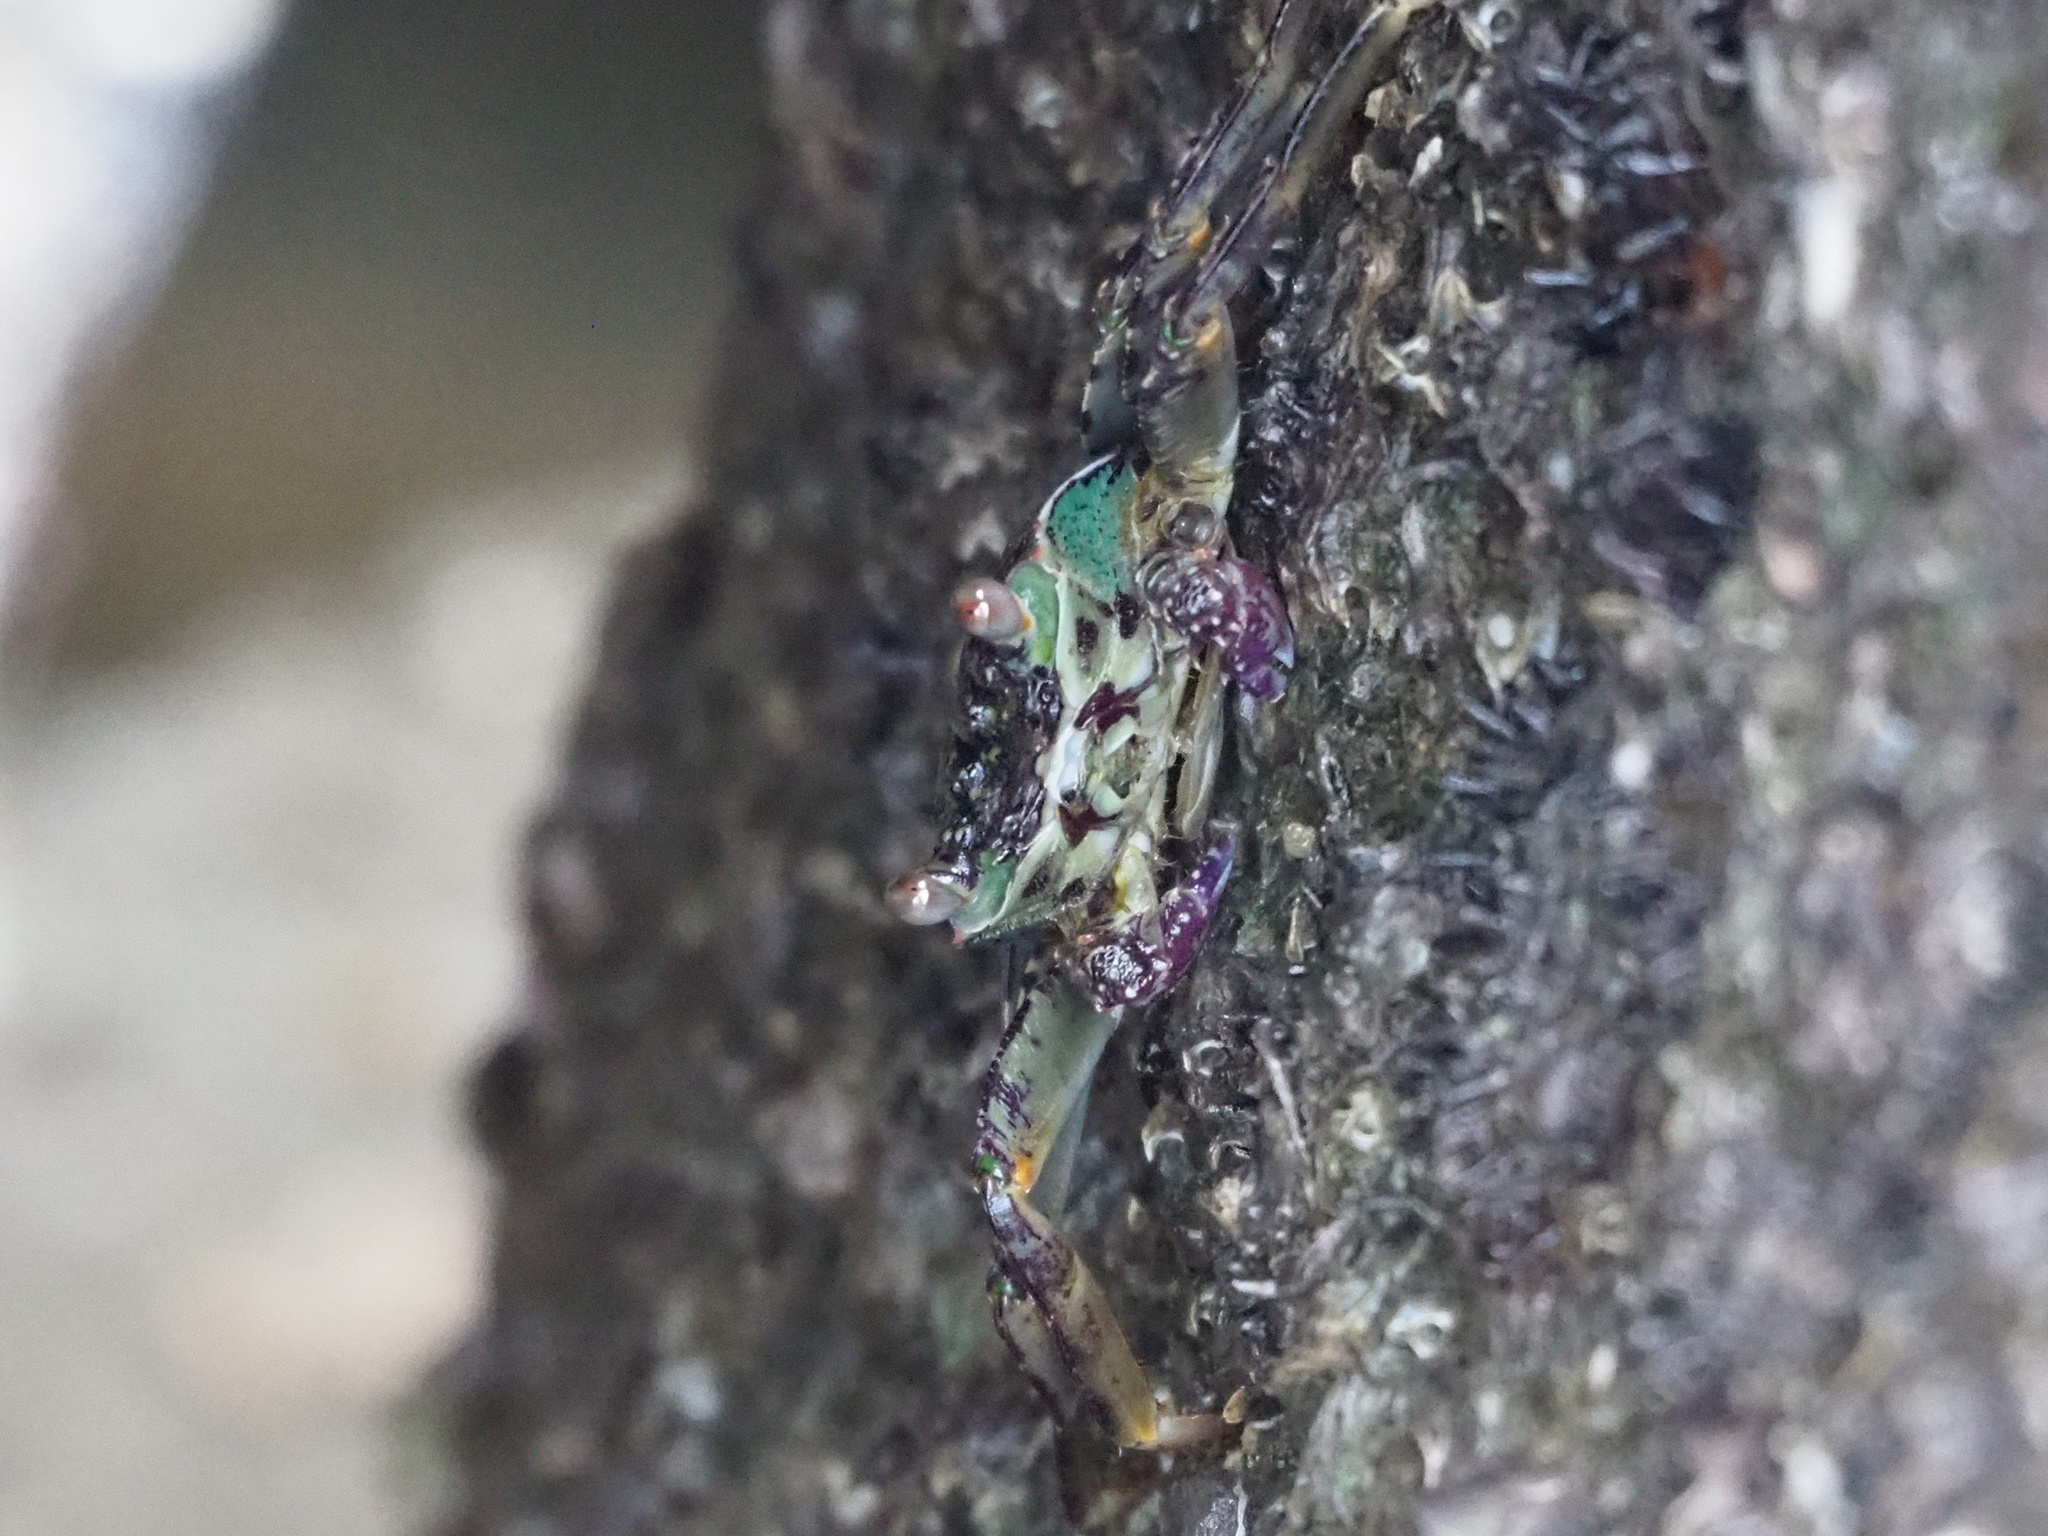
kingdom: Animalia
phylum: Arthropoda
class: Malacostraca
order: Decapoda
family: Grapsidae
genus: Grapsus
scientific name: Grapsus albolineatus
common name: Mottled lightfoot crab
